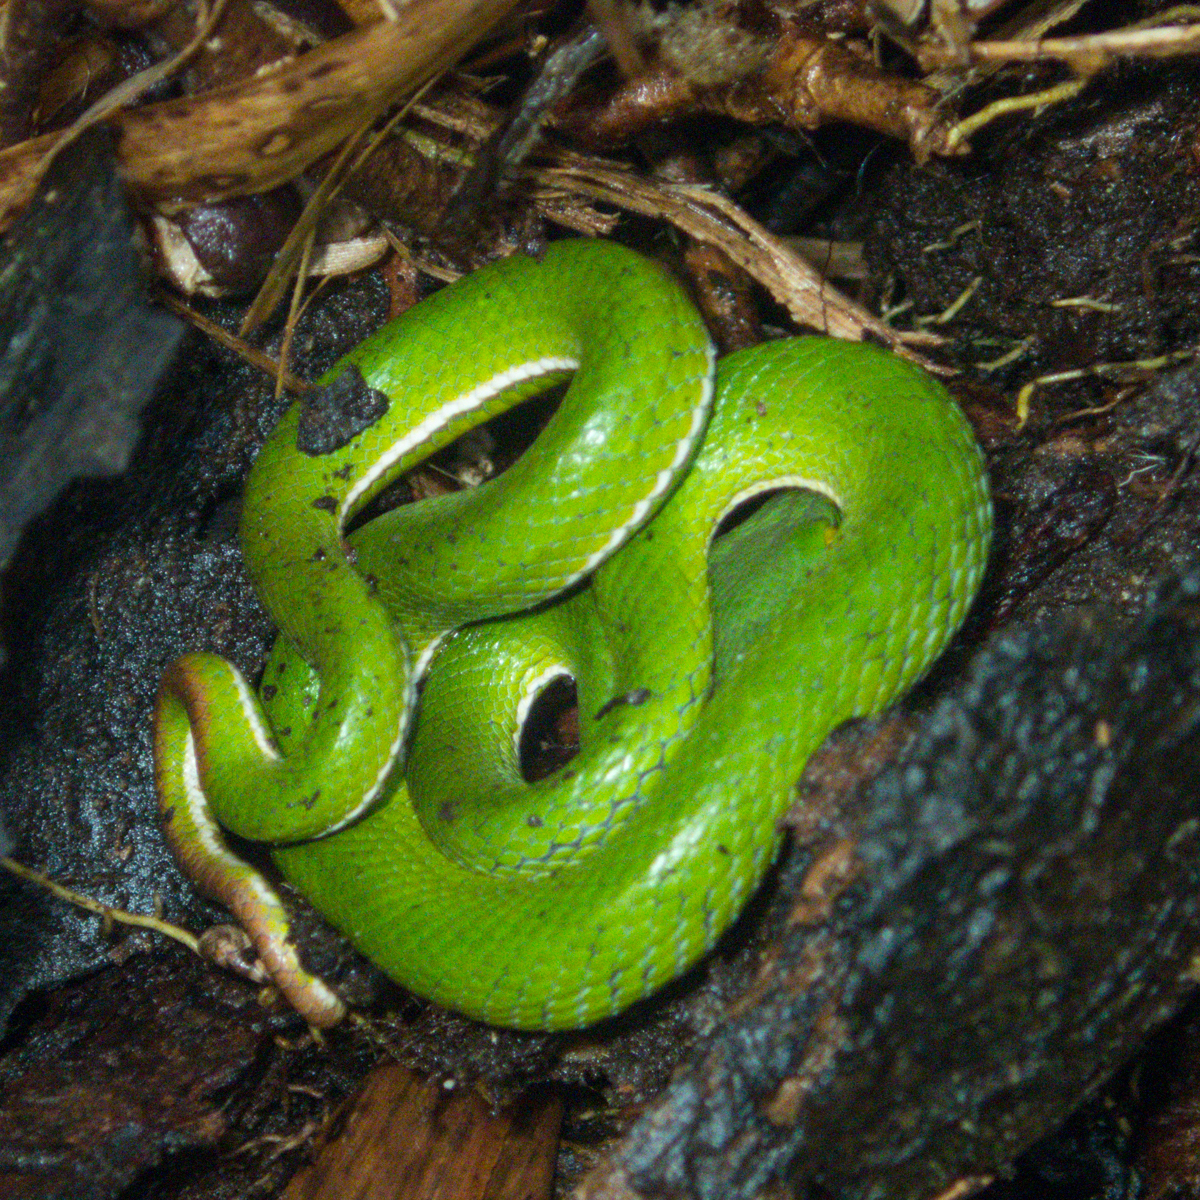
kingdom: Animalia
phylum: Chordata
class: Squamata
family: Viperidae
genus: Trimeresurus
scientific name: Trimeresurus cardamomensis
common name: Cardamom mountains green pitviper
